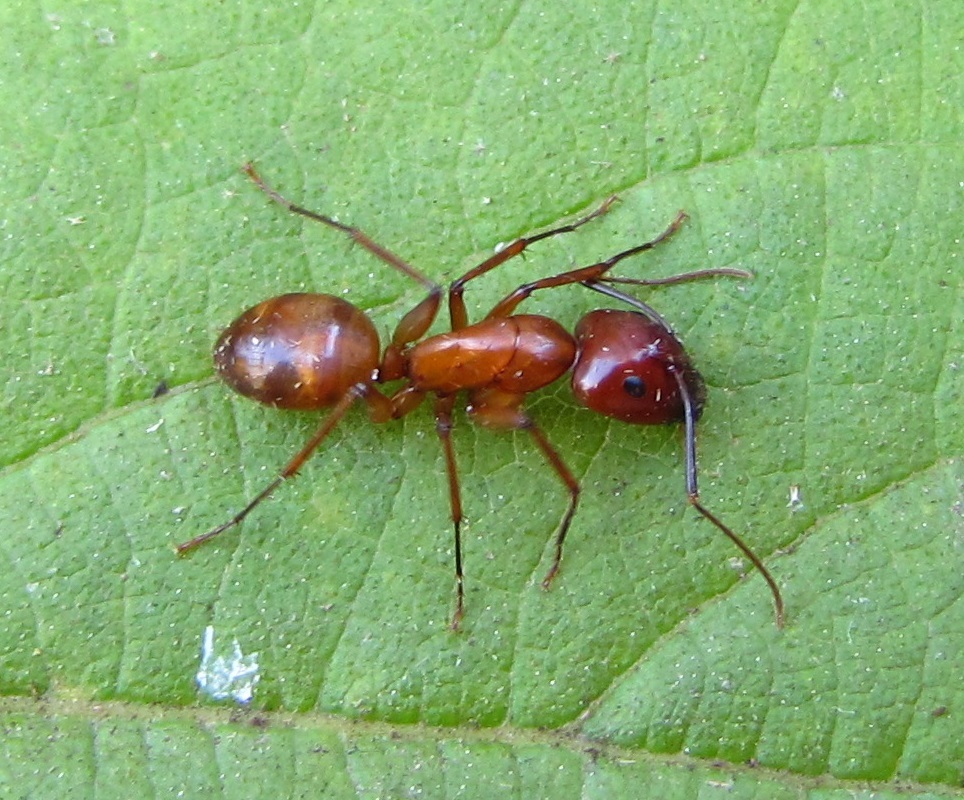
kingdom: Animalia
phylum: Arthropoda
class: Insecta
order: Hymenoptera
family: Formicidae
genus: Camponotus
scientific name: Camponotus castaneus
